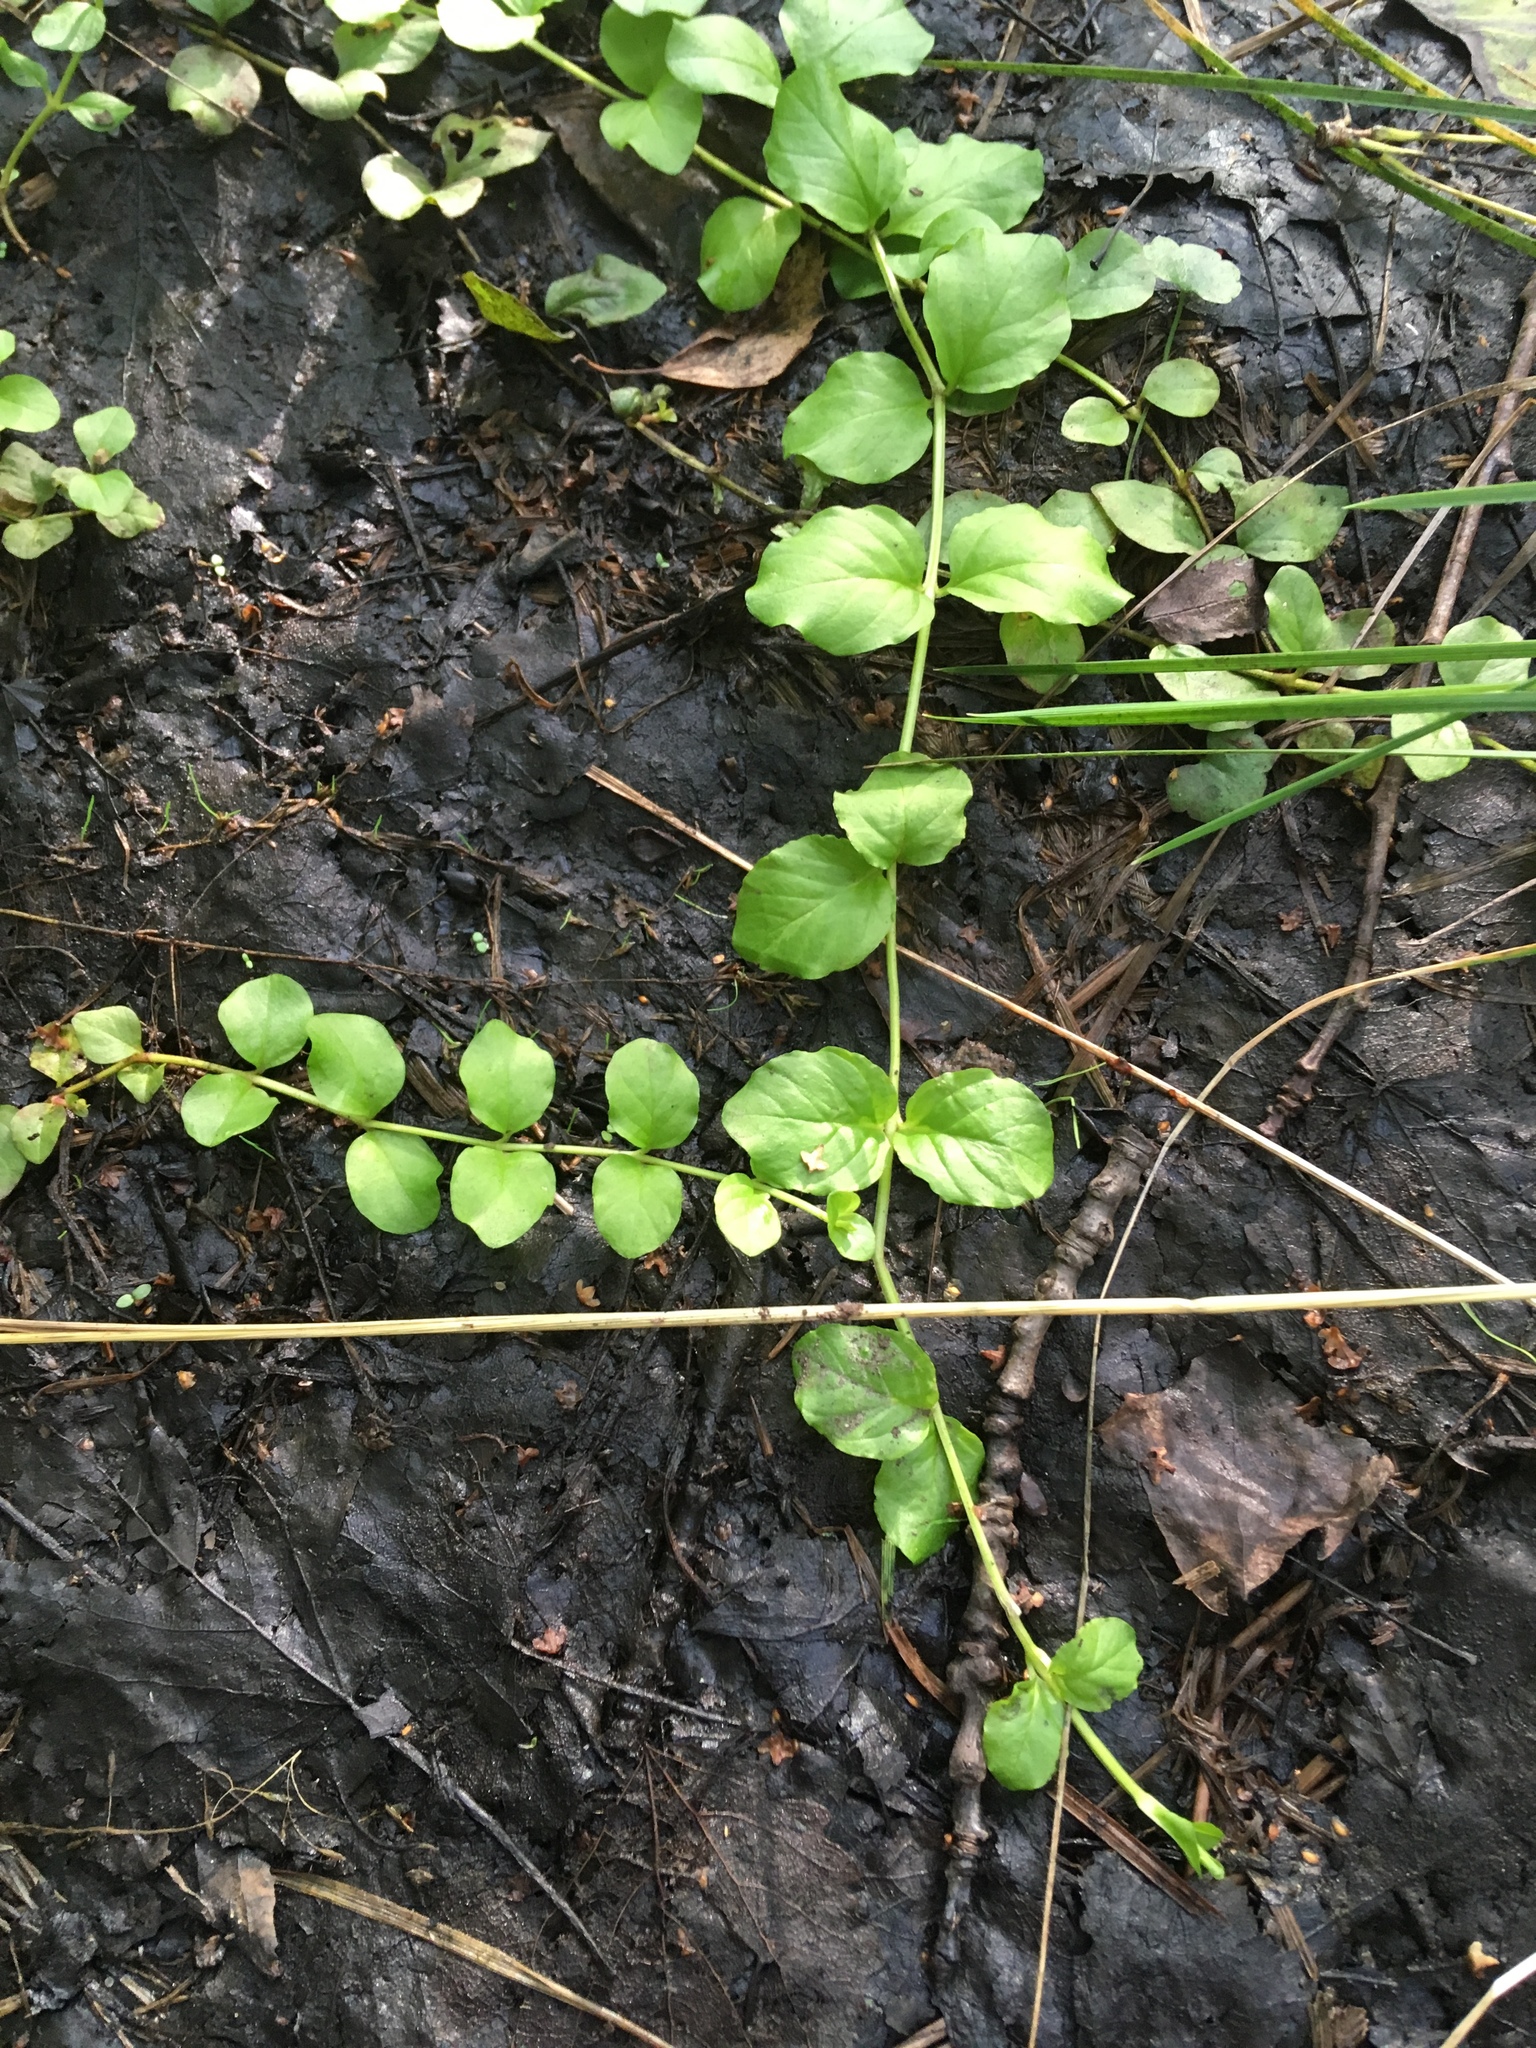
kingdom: Plantae
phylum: Tracheophyta
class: Magnoliopsida
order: Ericales
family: Primulaceae
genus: Lysimachia
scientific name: Lysimachia nummularia
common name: Moneywort
